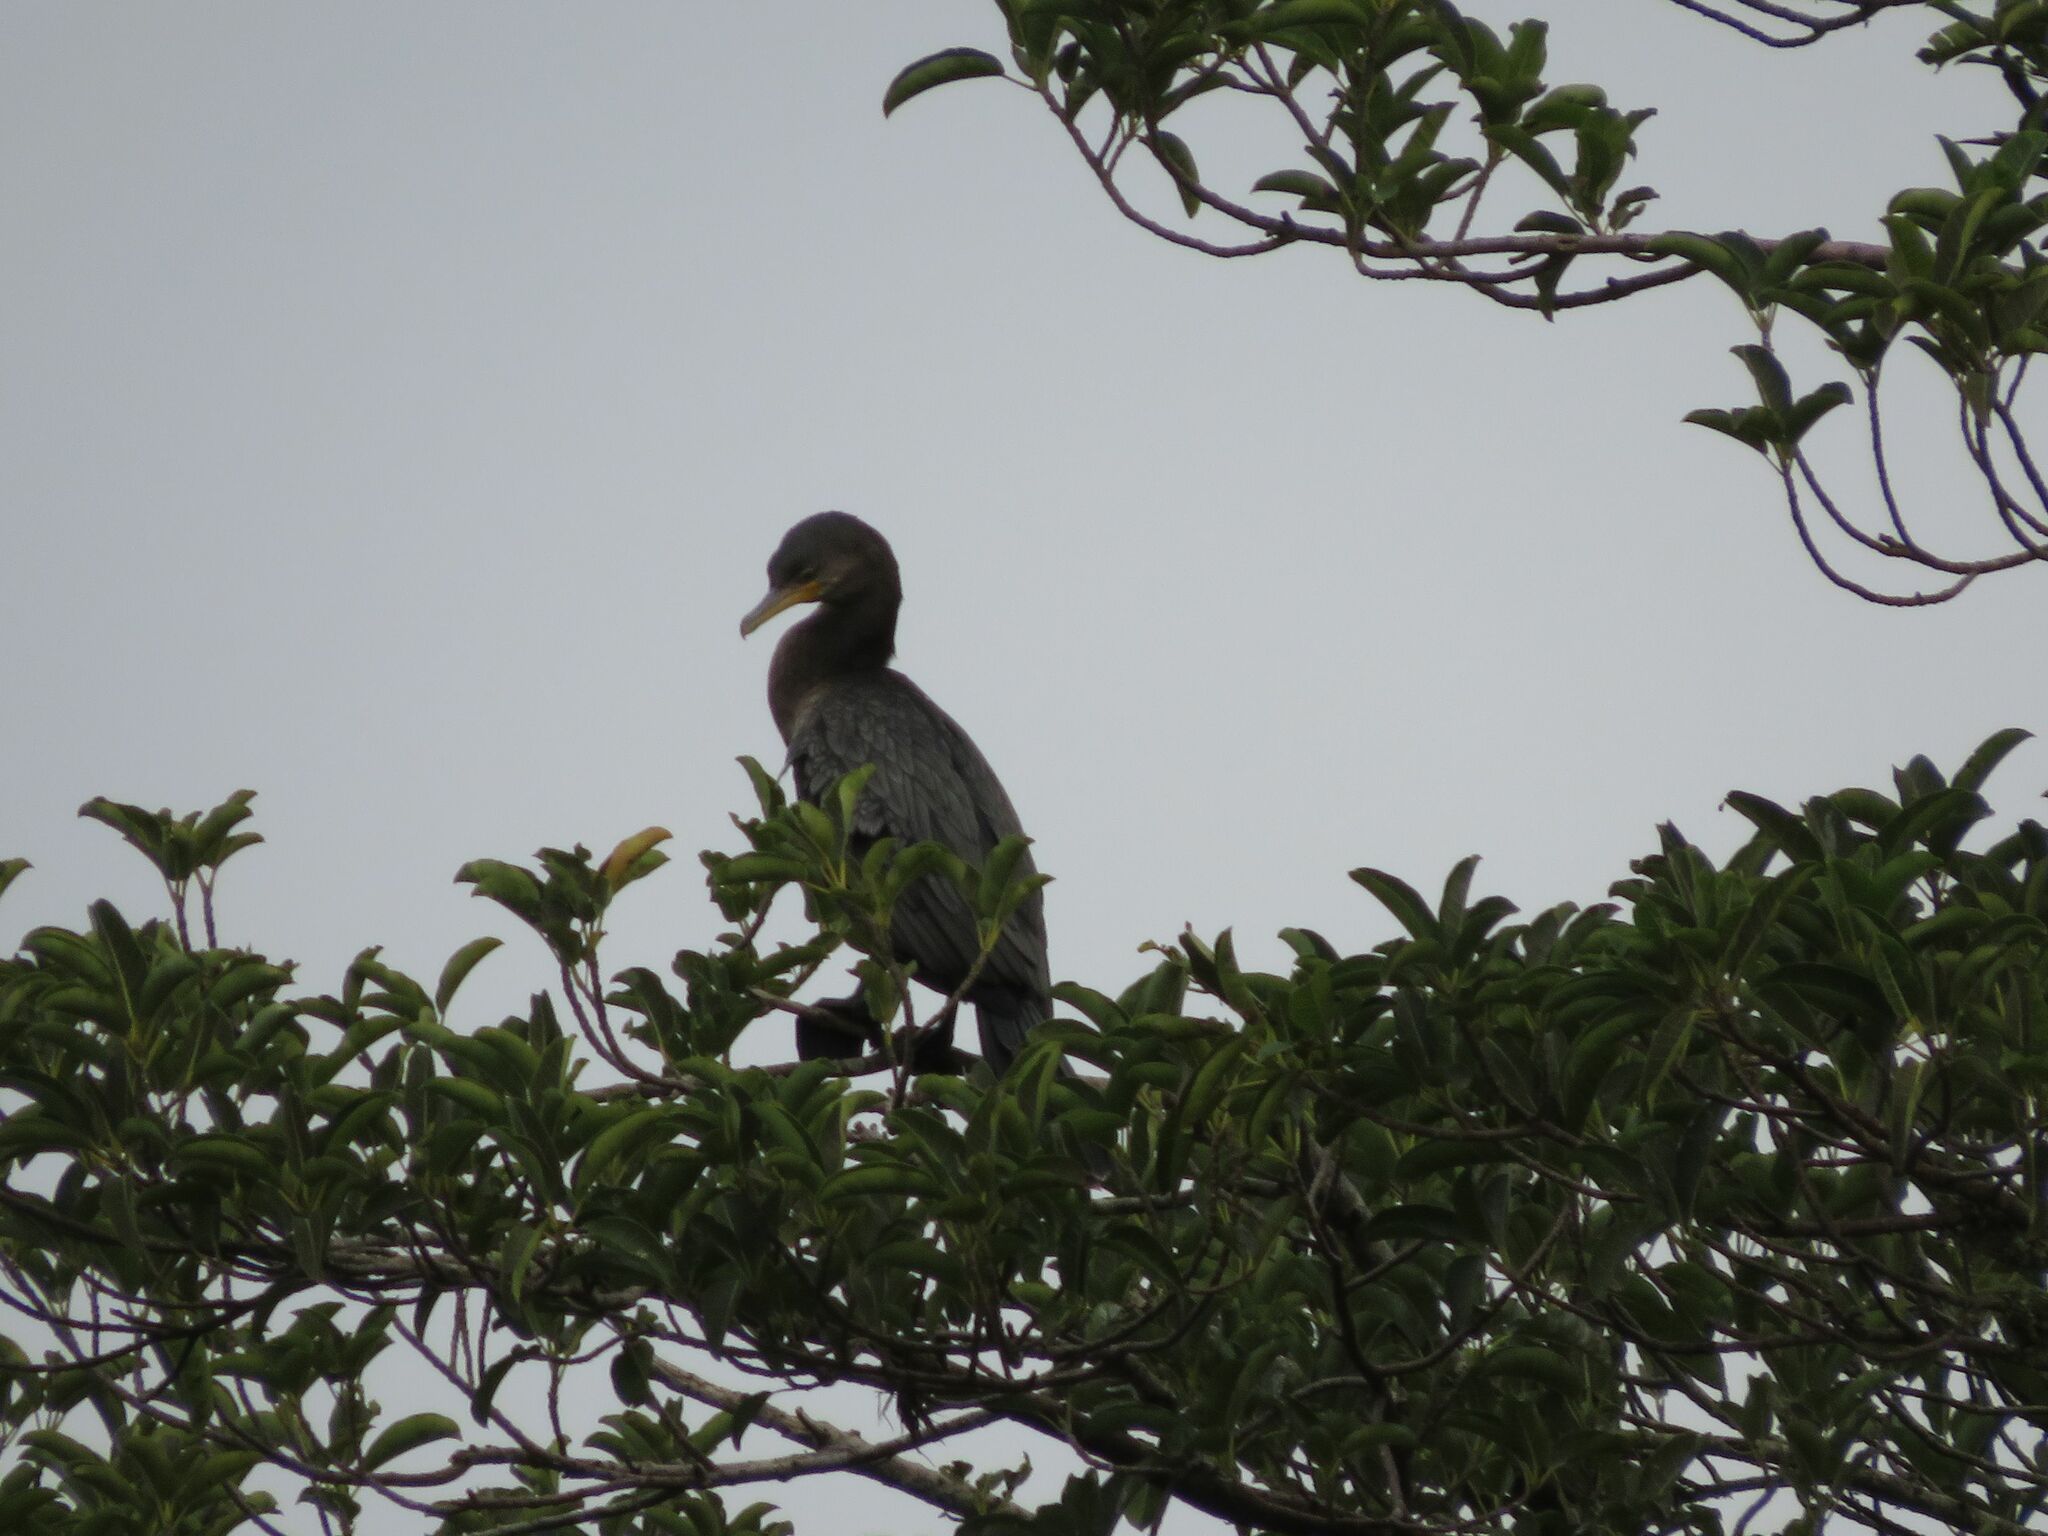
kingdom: Animalia
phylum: Chordata
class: Aves
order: Suliformes
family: Phalacrocoracidae
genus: Phalacrocorax
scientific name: Phalacrocorax brasilianus
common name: Neotropic cormorant
